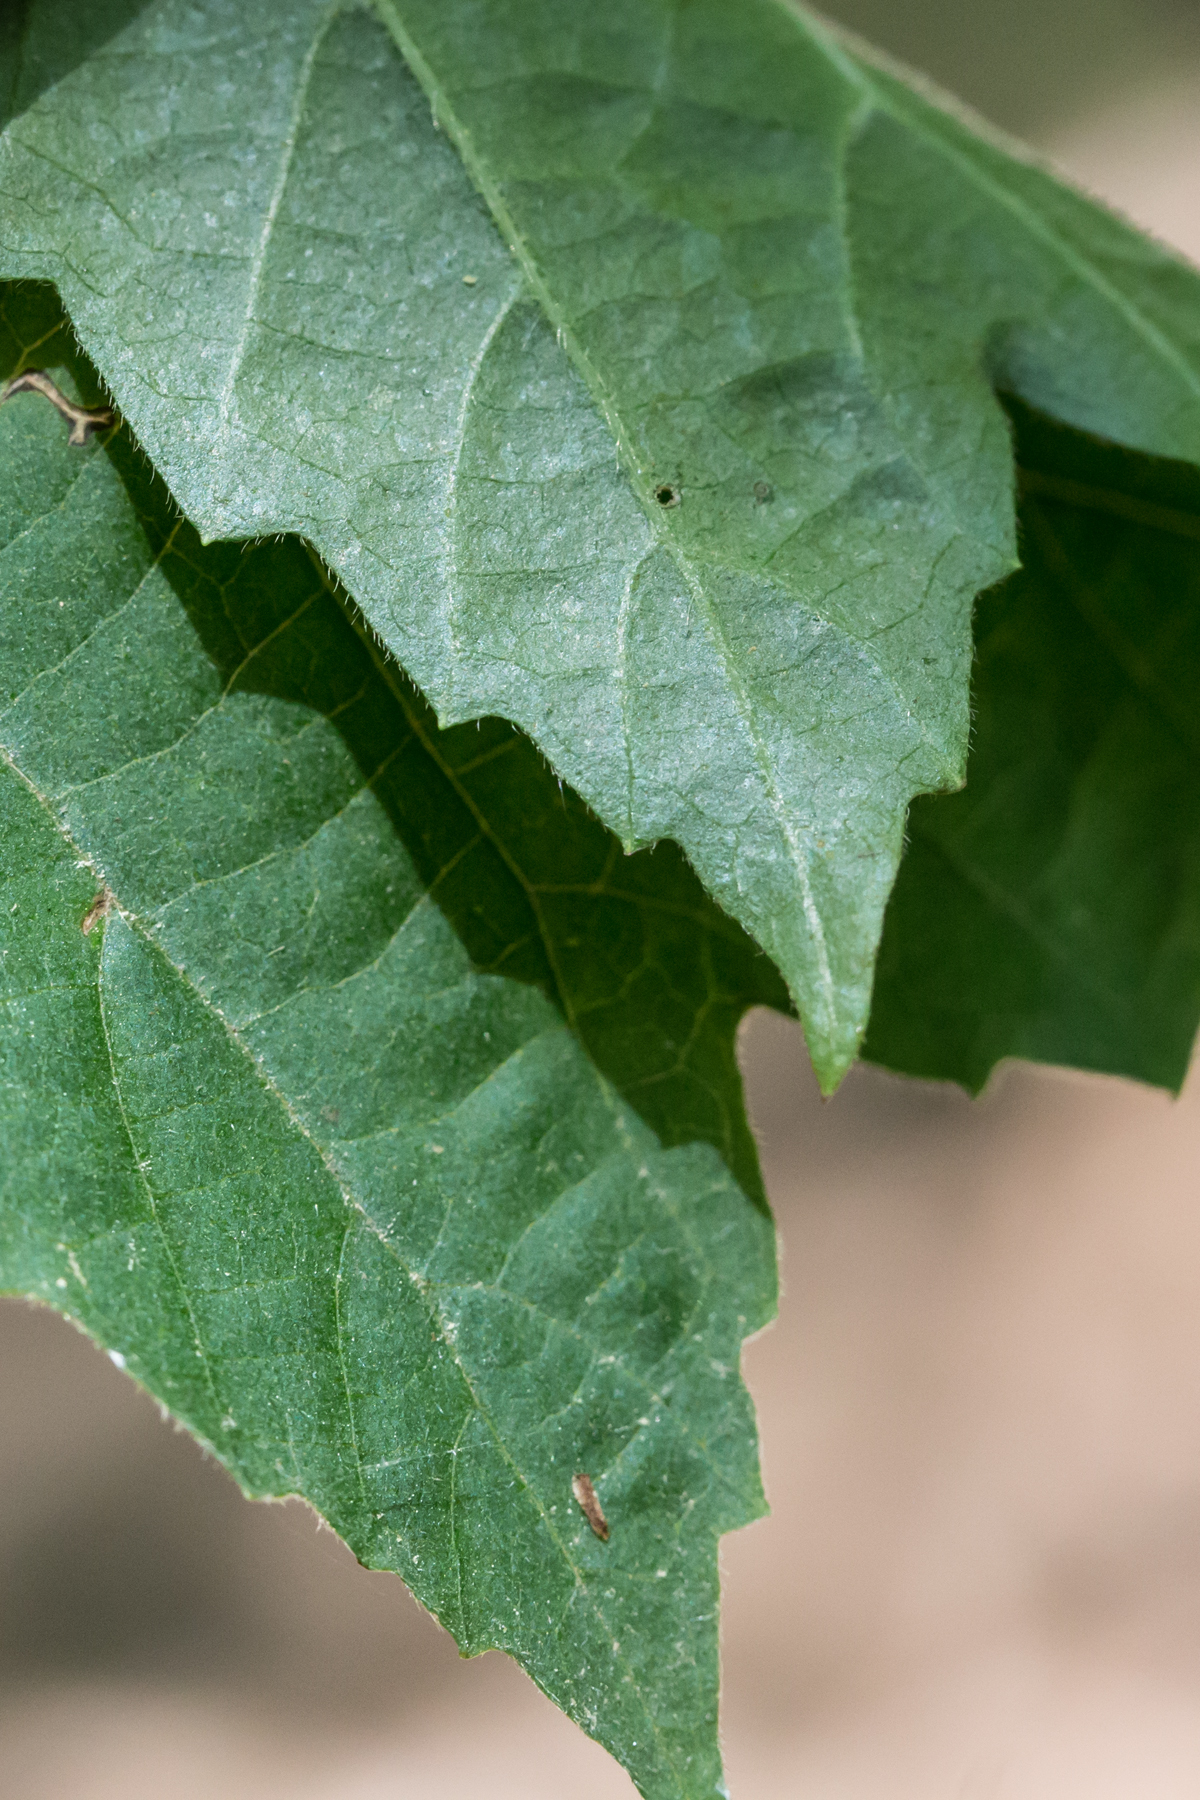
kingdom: Plantae
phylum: Tracheophyta
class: Magnoliopsida
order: Dipsacales
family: Viburnaceae
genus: Viburnum
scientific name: Viburnum acerifolium
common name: Dockmackie
